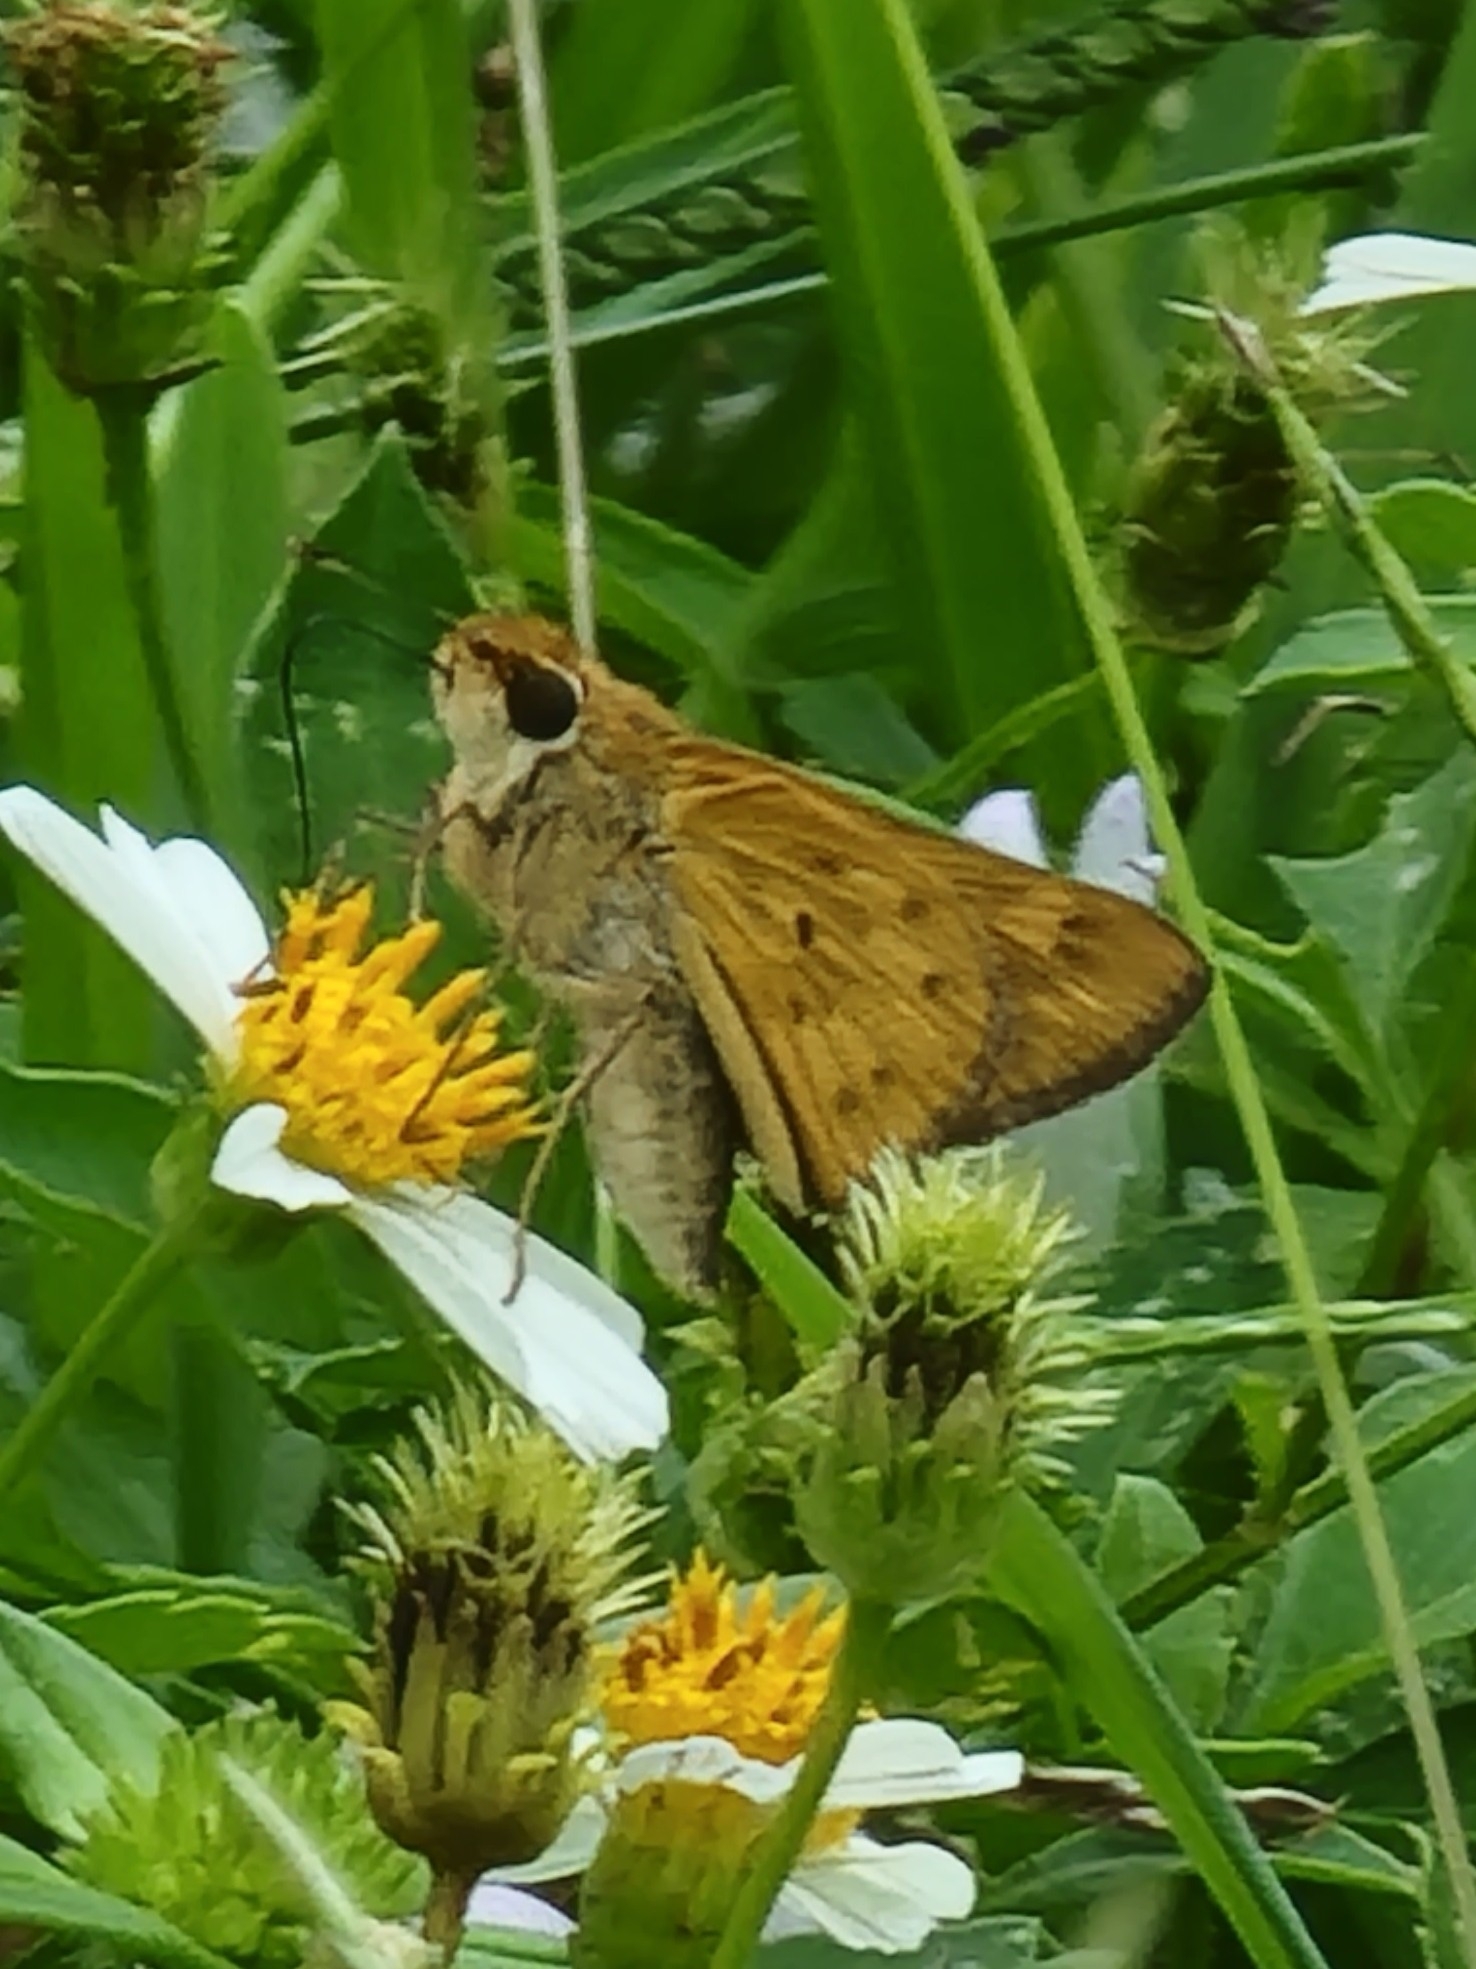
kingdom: Animalia
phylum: Arthropoda
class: Insecta
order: Lepidoptera
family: Hesperiidae
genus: Hylephila
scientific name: Hylephila phyleus
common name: Fiery skipper
